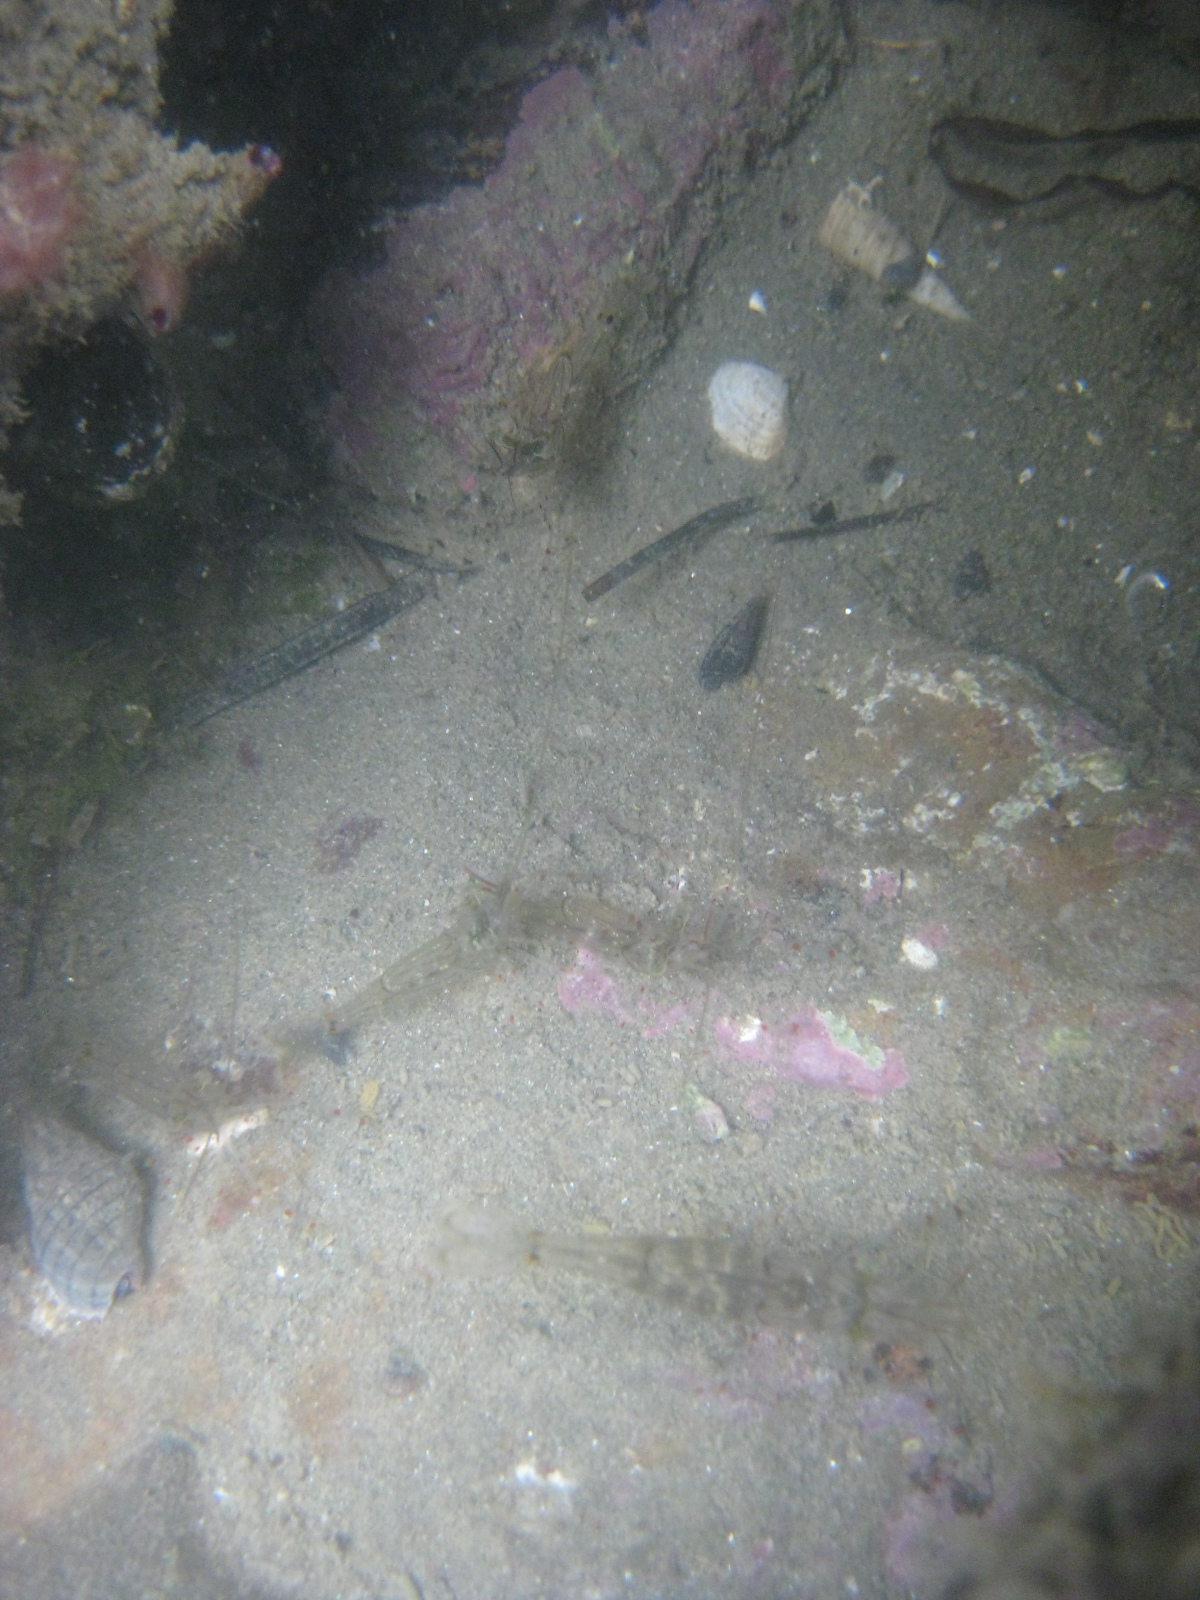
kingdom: Animalia
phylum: Arthropoda
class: Malacostraca
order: Decapoda
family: Palaemonidae
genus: Palaemon
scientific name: Palaemon affinis
